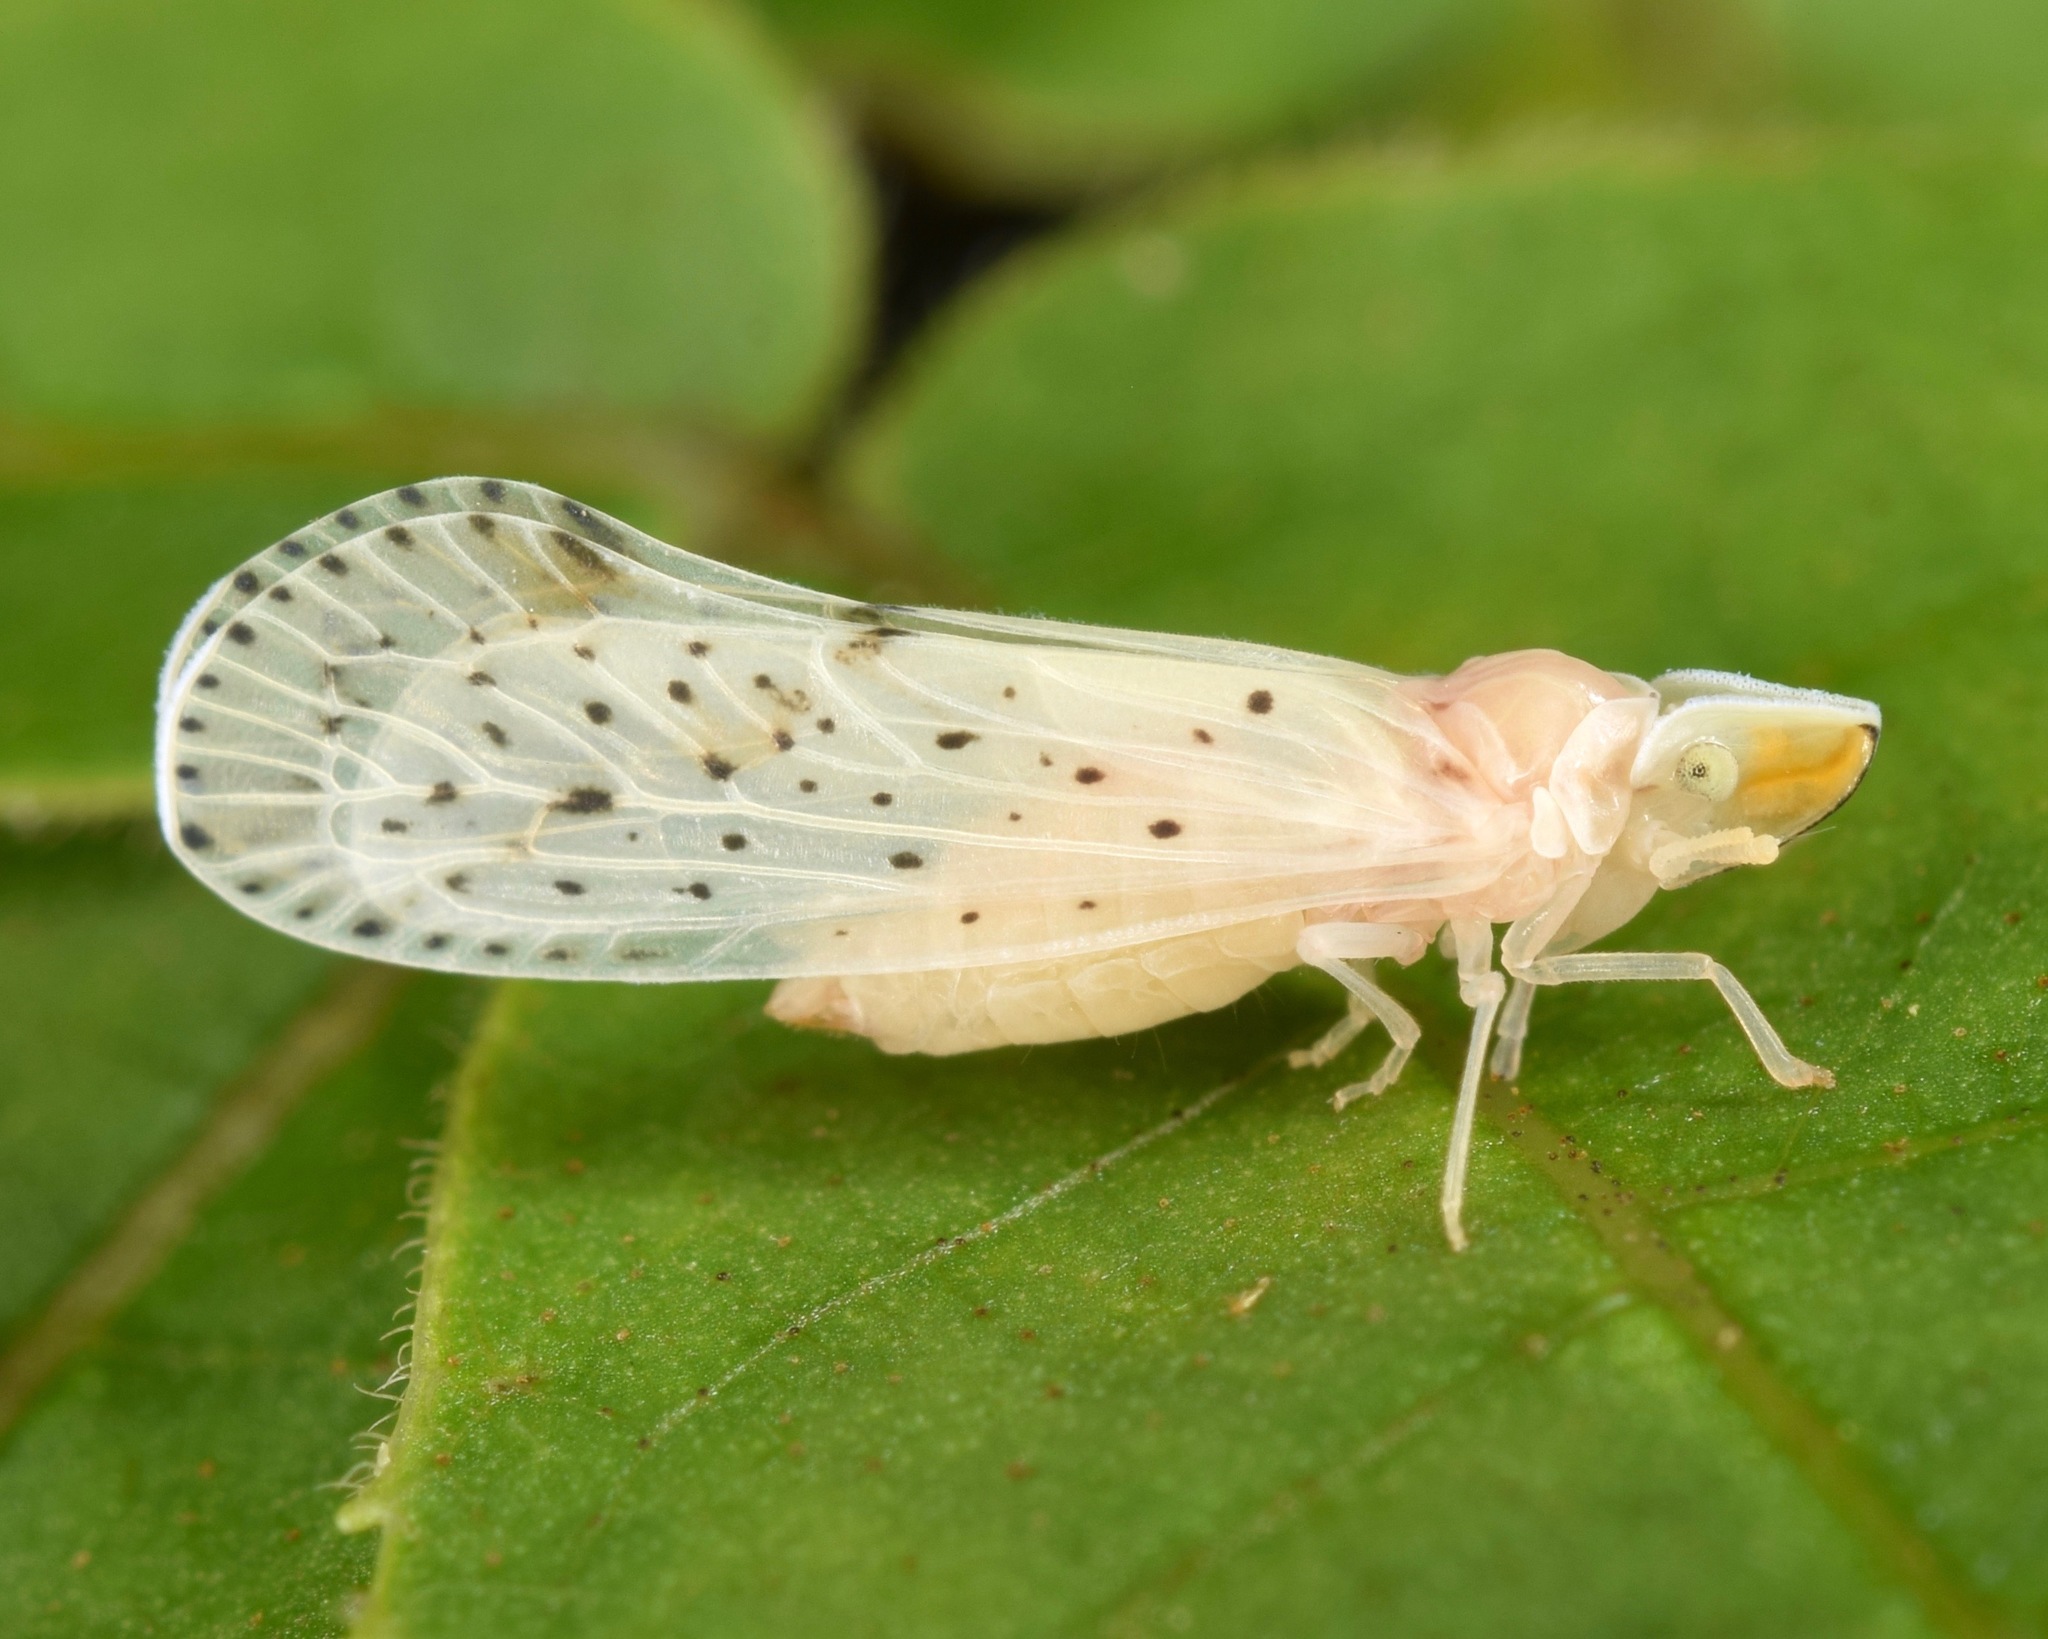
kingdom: Animalia
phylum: Arthropoda
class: Insecta
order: Hemiptera
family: Derbidae
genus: Otiocerus
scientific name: Otiocerus abbotii
